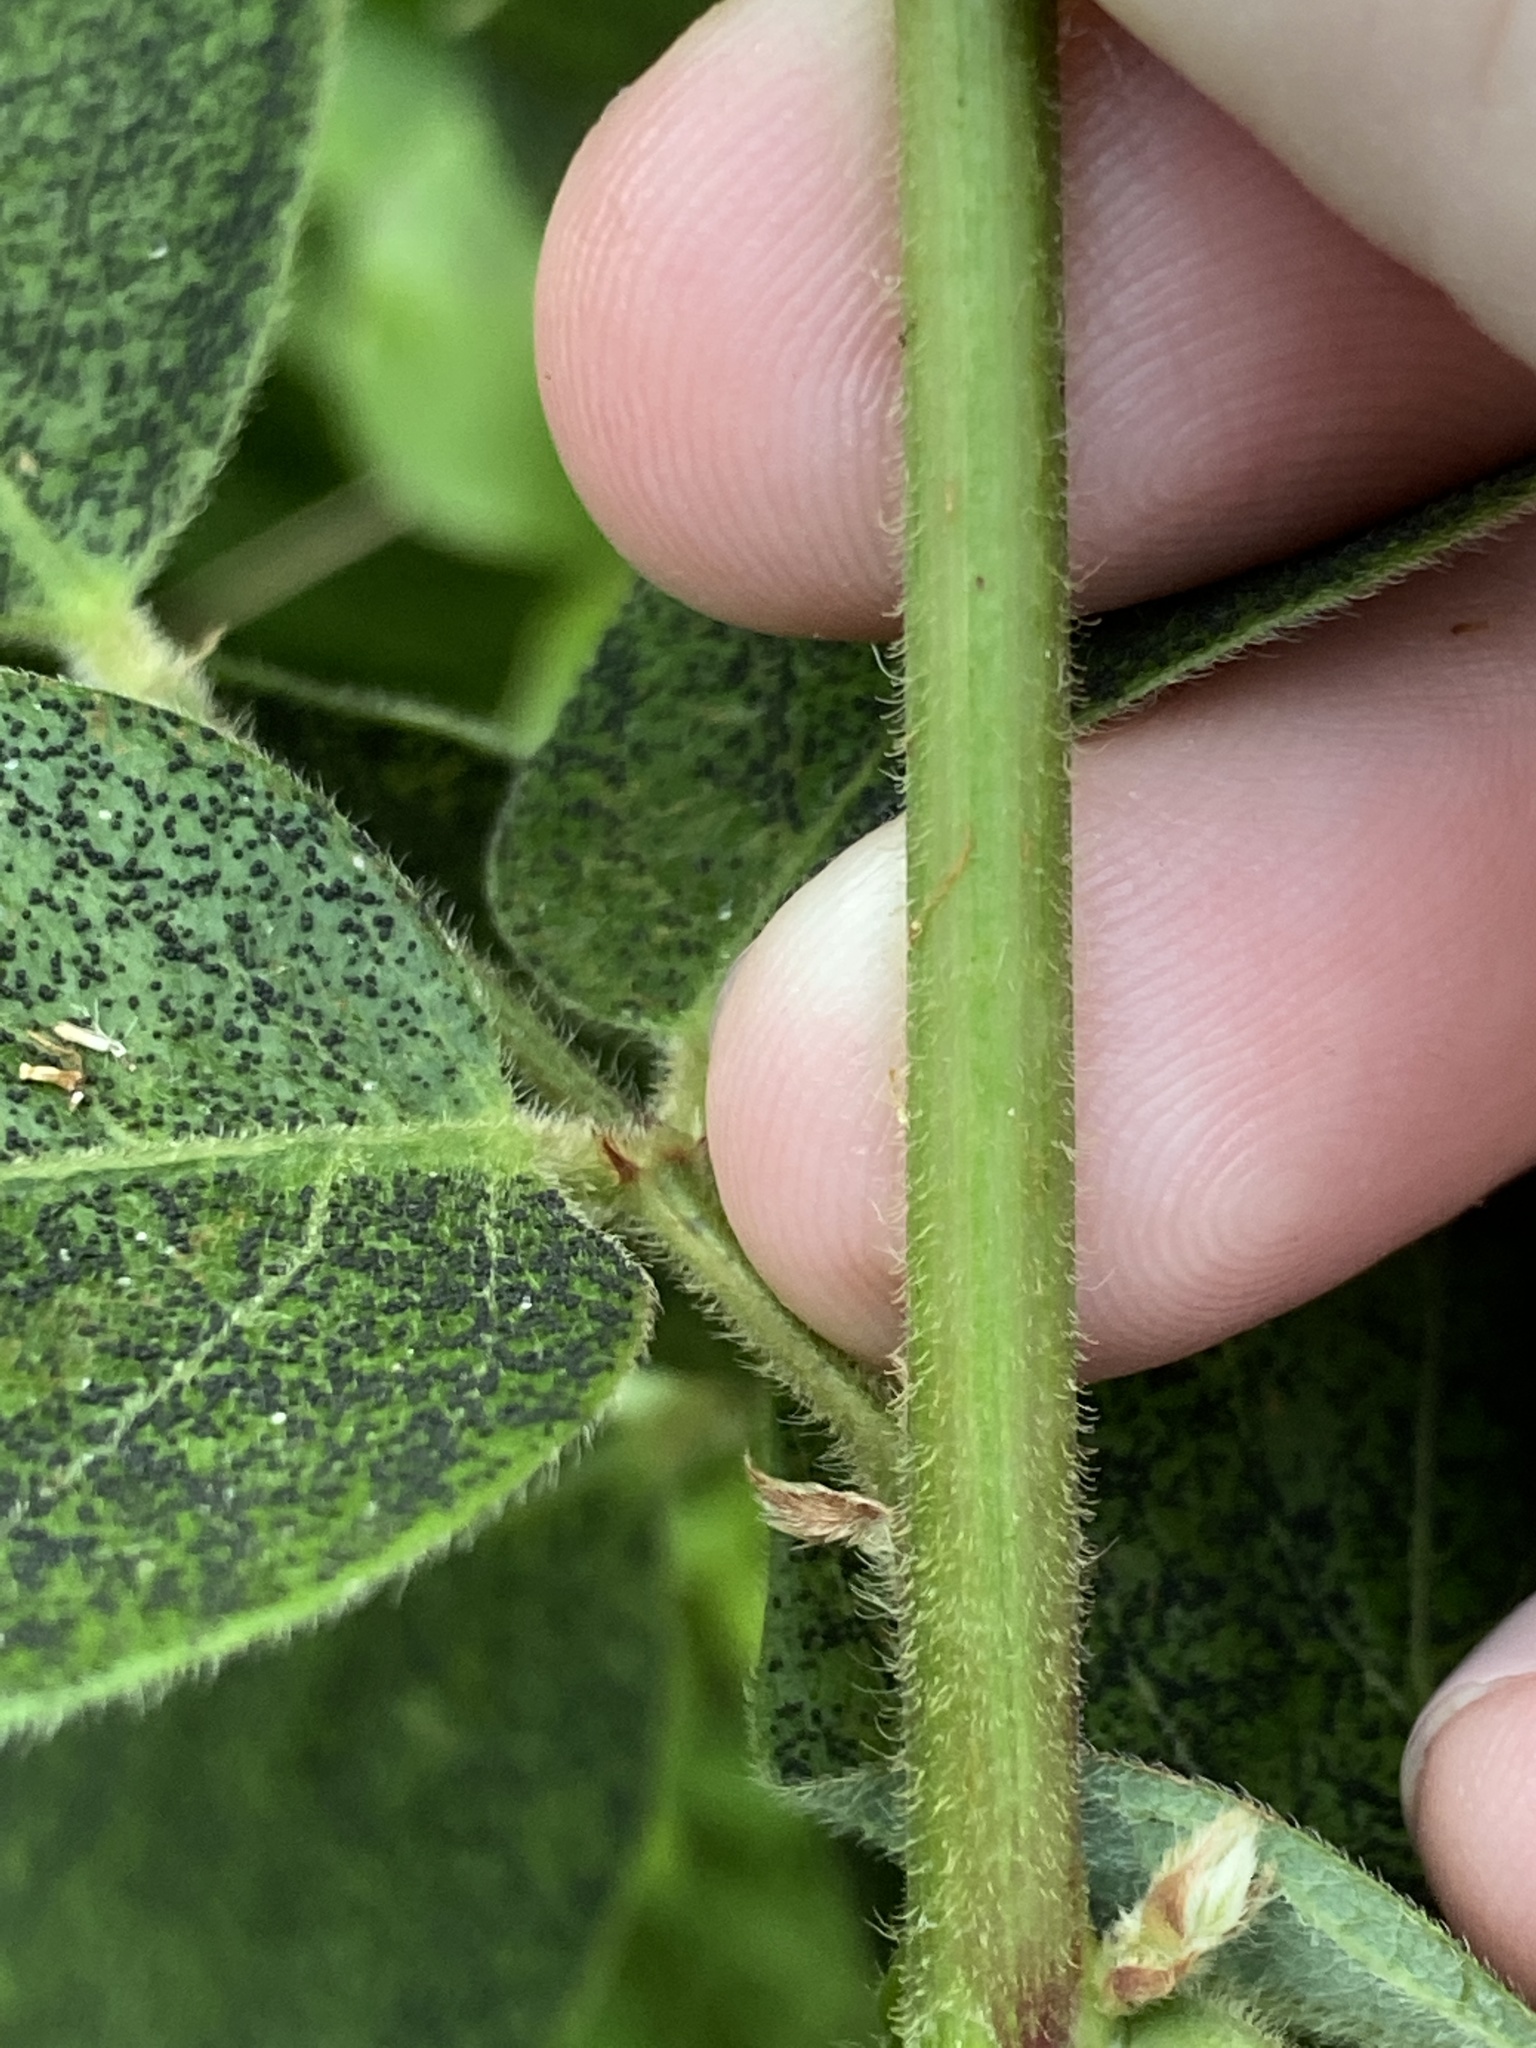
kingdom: Plantae
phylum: Tracheophyta
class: Magnoliopsida
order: Fabales
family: Fabaceae
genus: Desmodium
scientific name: Desmodium nuttallii
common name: Nuttall's tick trefoil
